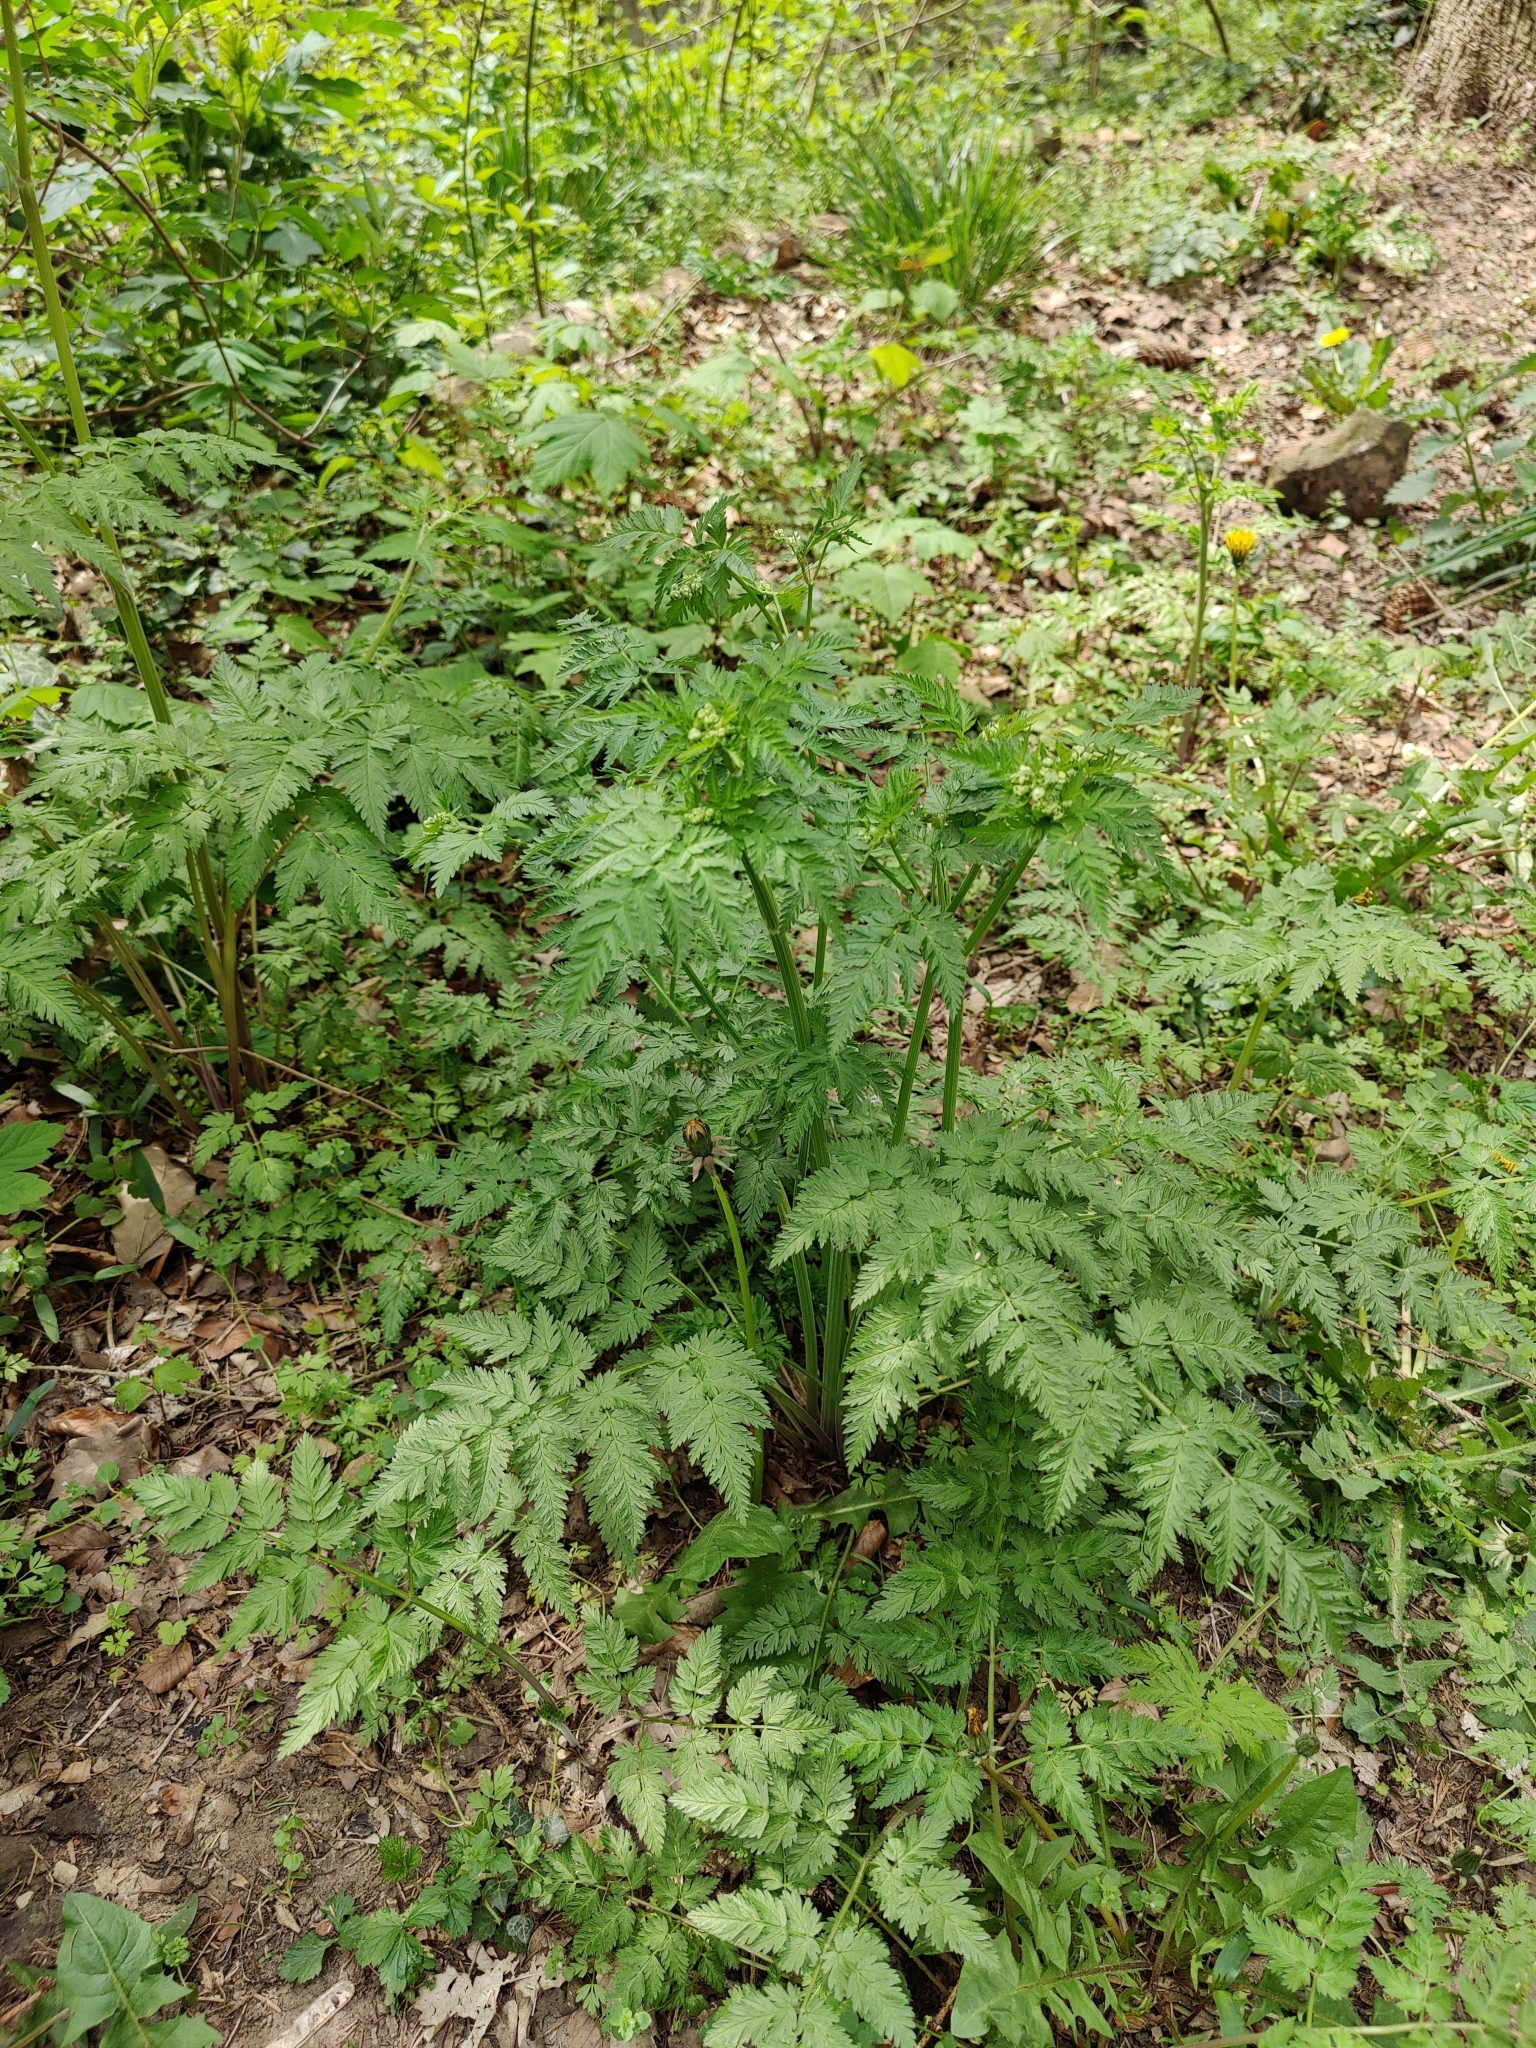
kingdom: Plantae
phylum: Tracheophyta
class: Magnoliopsida
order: Apiales
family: Apiaceae
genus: Anthriscus
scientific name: Anthriscus sylvestris
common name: Cow parsley
